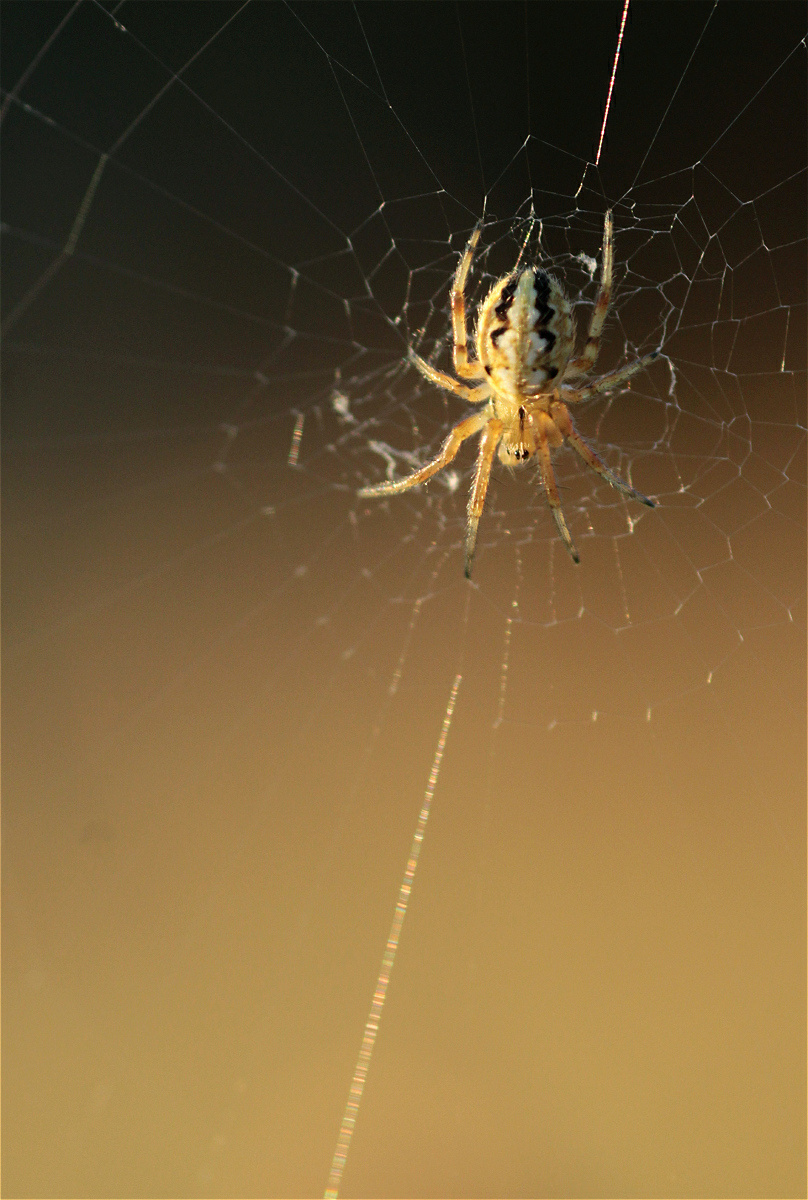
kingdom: Animalia
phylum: Arthropoda
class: Arachnida
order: Araneae
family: Araneidae
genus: Neoscona
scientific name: Neoscona adianta
